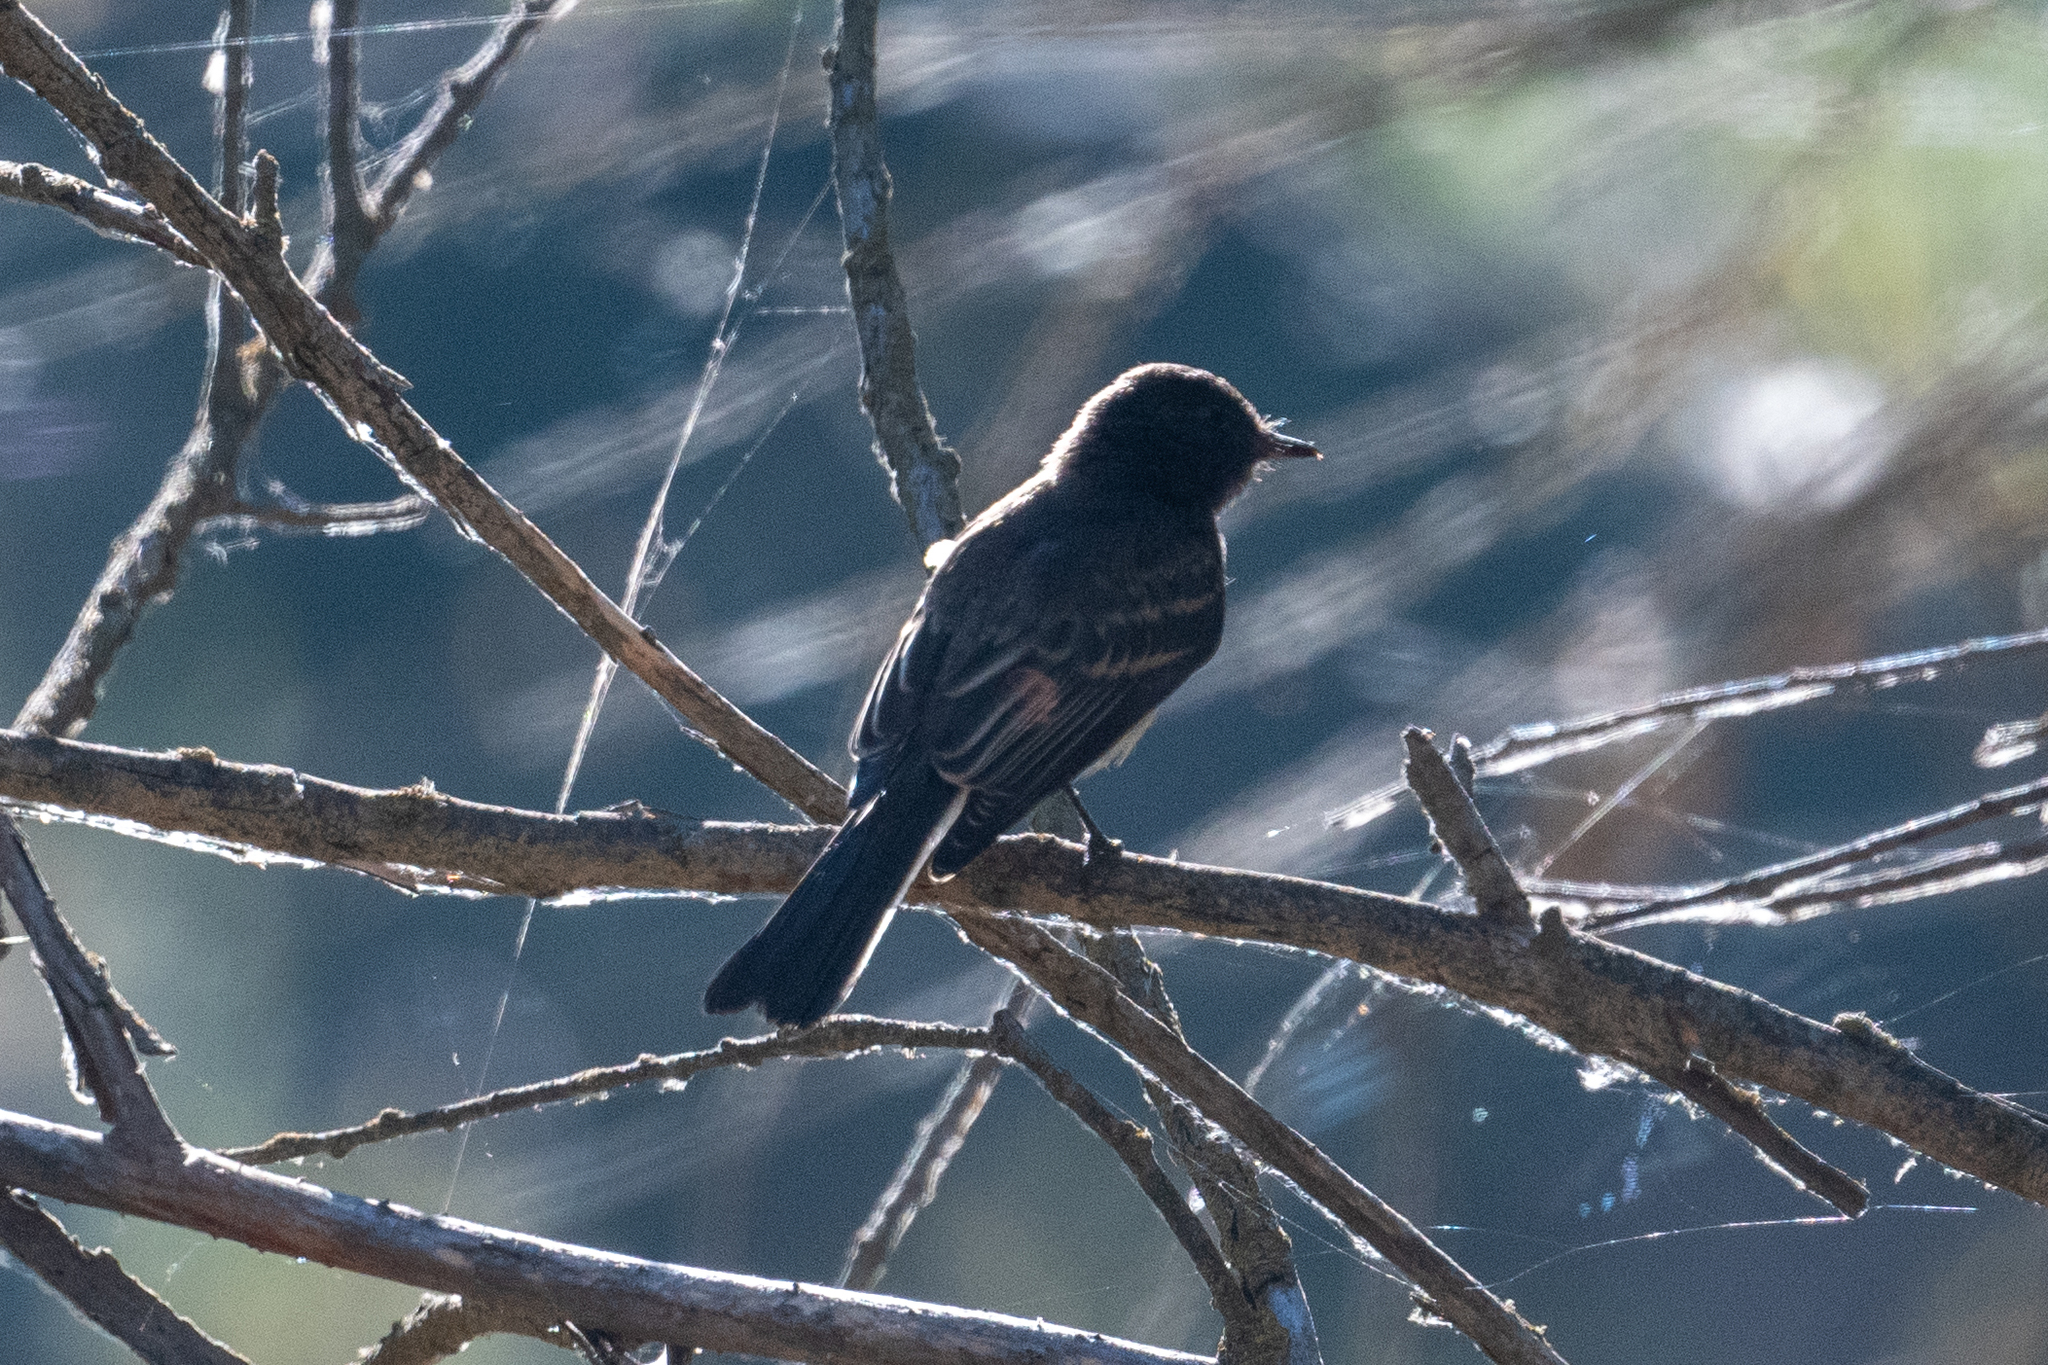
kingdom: Animalia
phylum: Chordata
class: Aves
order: Passeriformes
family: Tyrannidae
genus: Sayornis
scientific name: Sayornis nigricans
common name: Black phoebe
